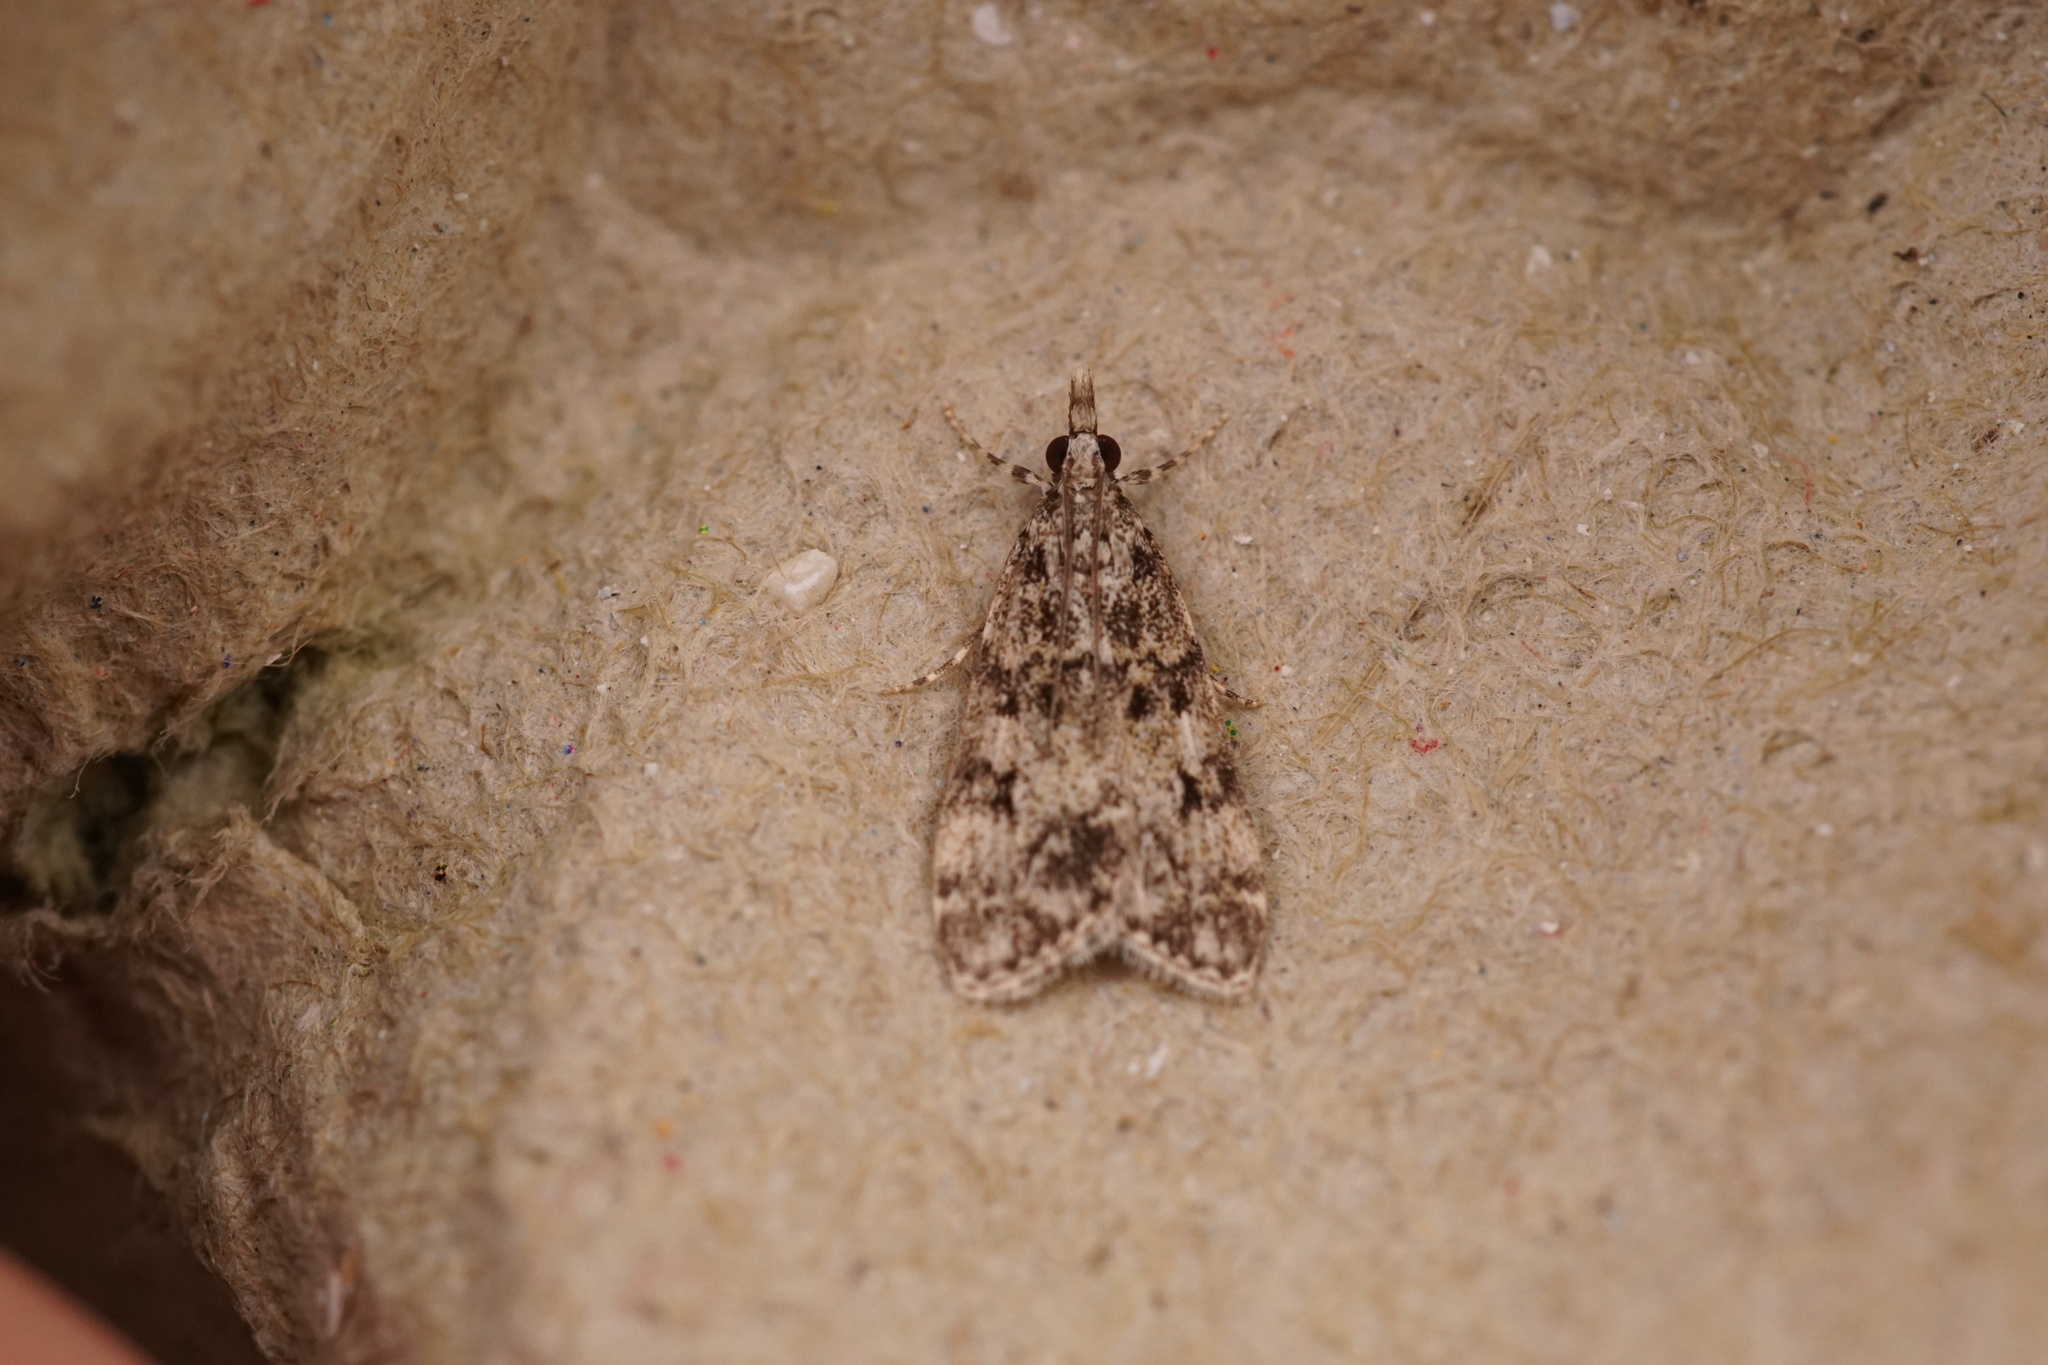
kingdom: Animalia
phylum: Arthropoda
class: Insecta
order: Lepidoptera
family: Crambidae
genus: Eudonia
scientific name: Eudonia lacustrata
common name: Little grey
